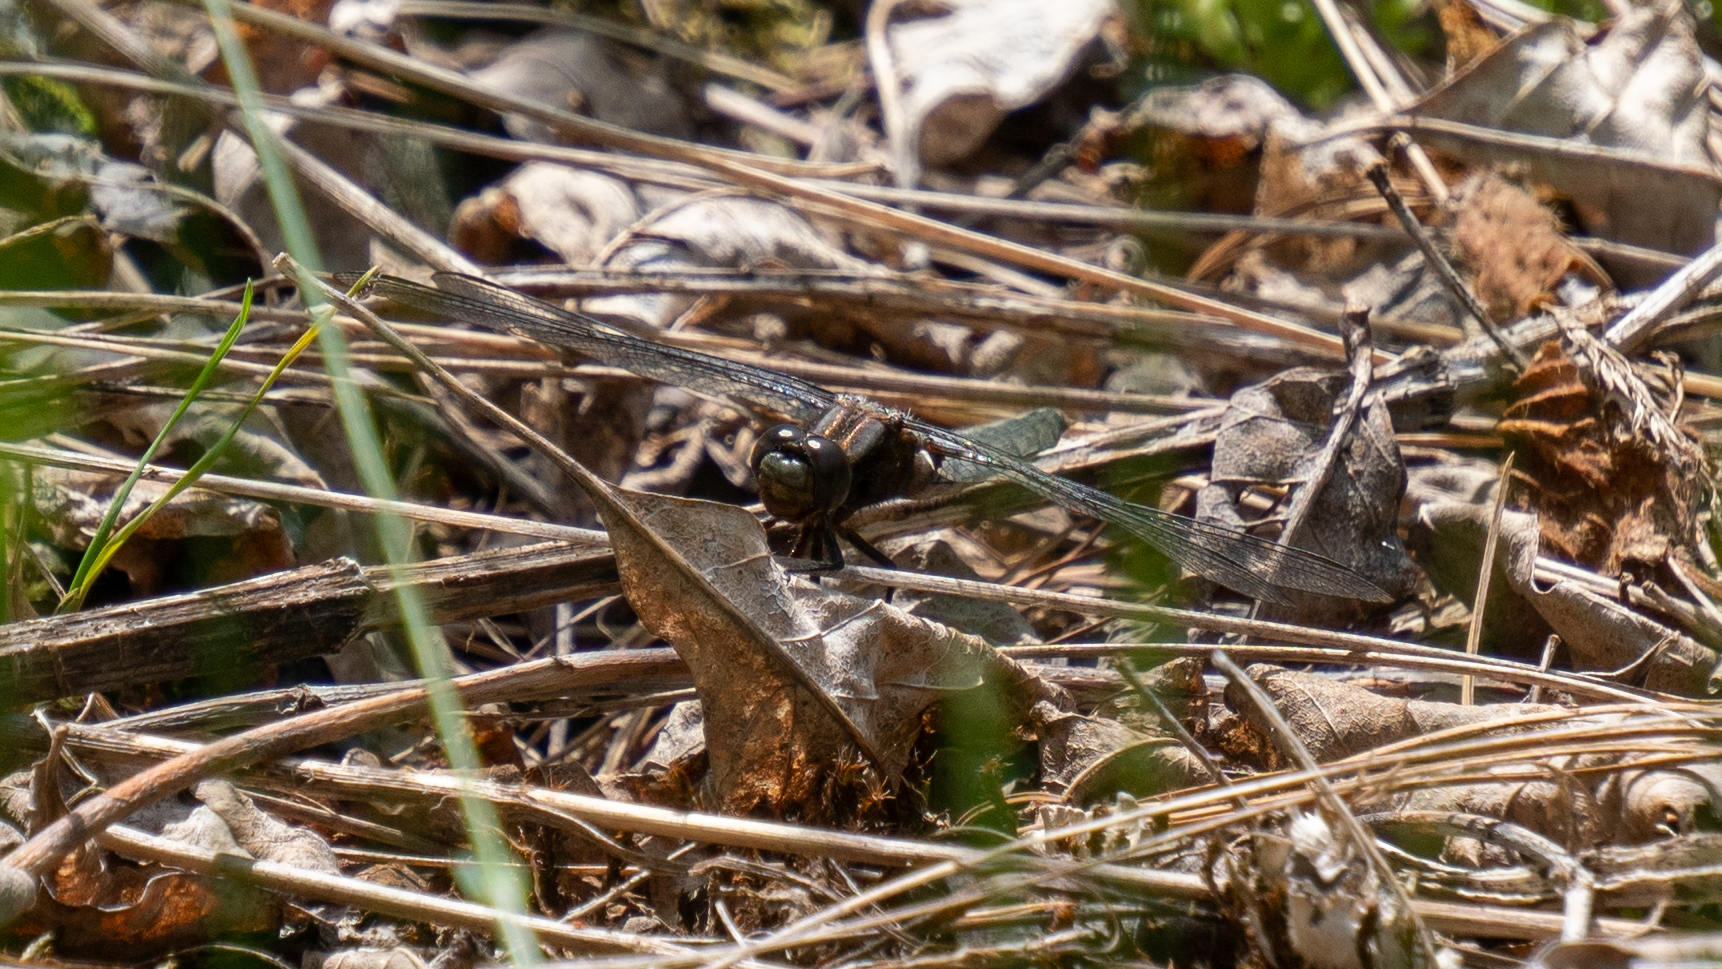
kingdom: Animalia
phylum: Arthropoda
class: Insecta
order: Odonata
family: Libellulidae
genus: Ladona
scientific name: Ladona julia
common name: Chalk-fronted corporal
